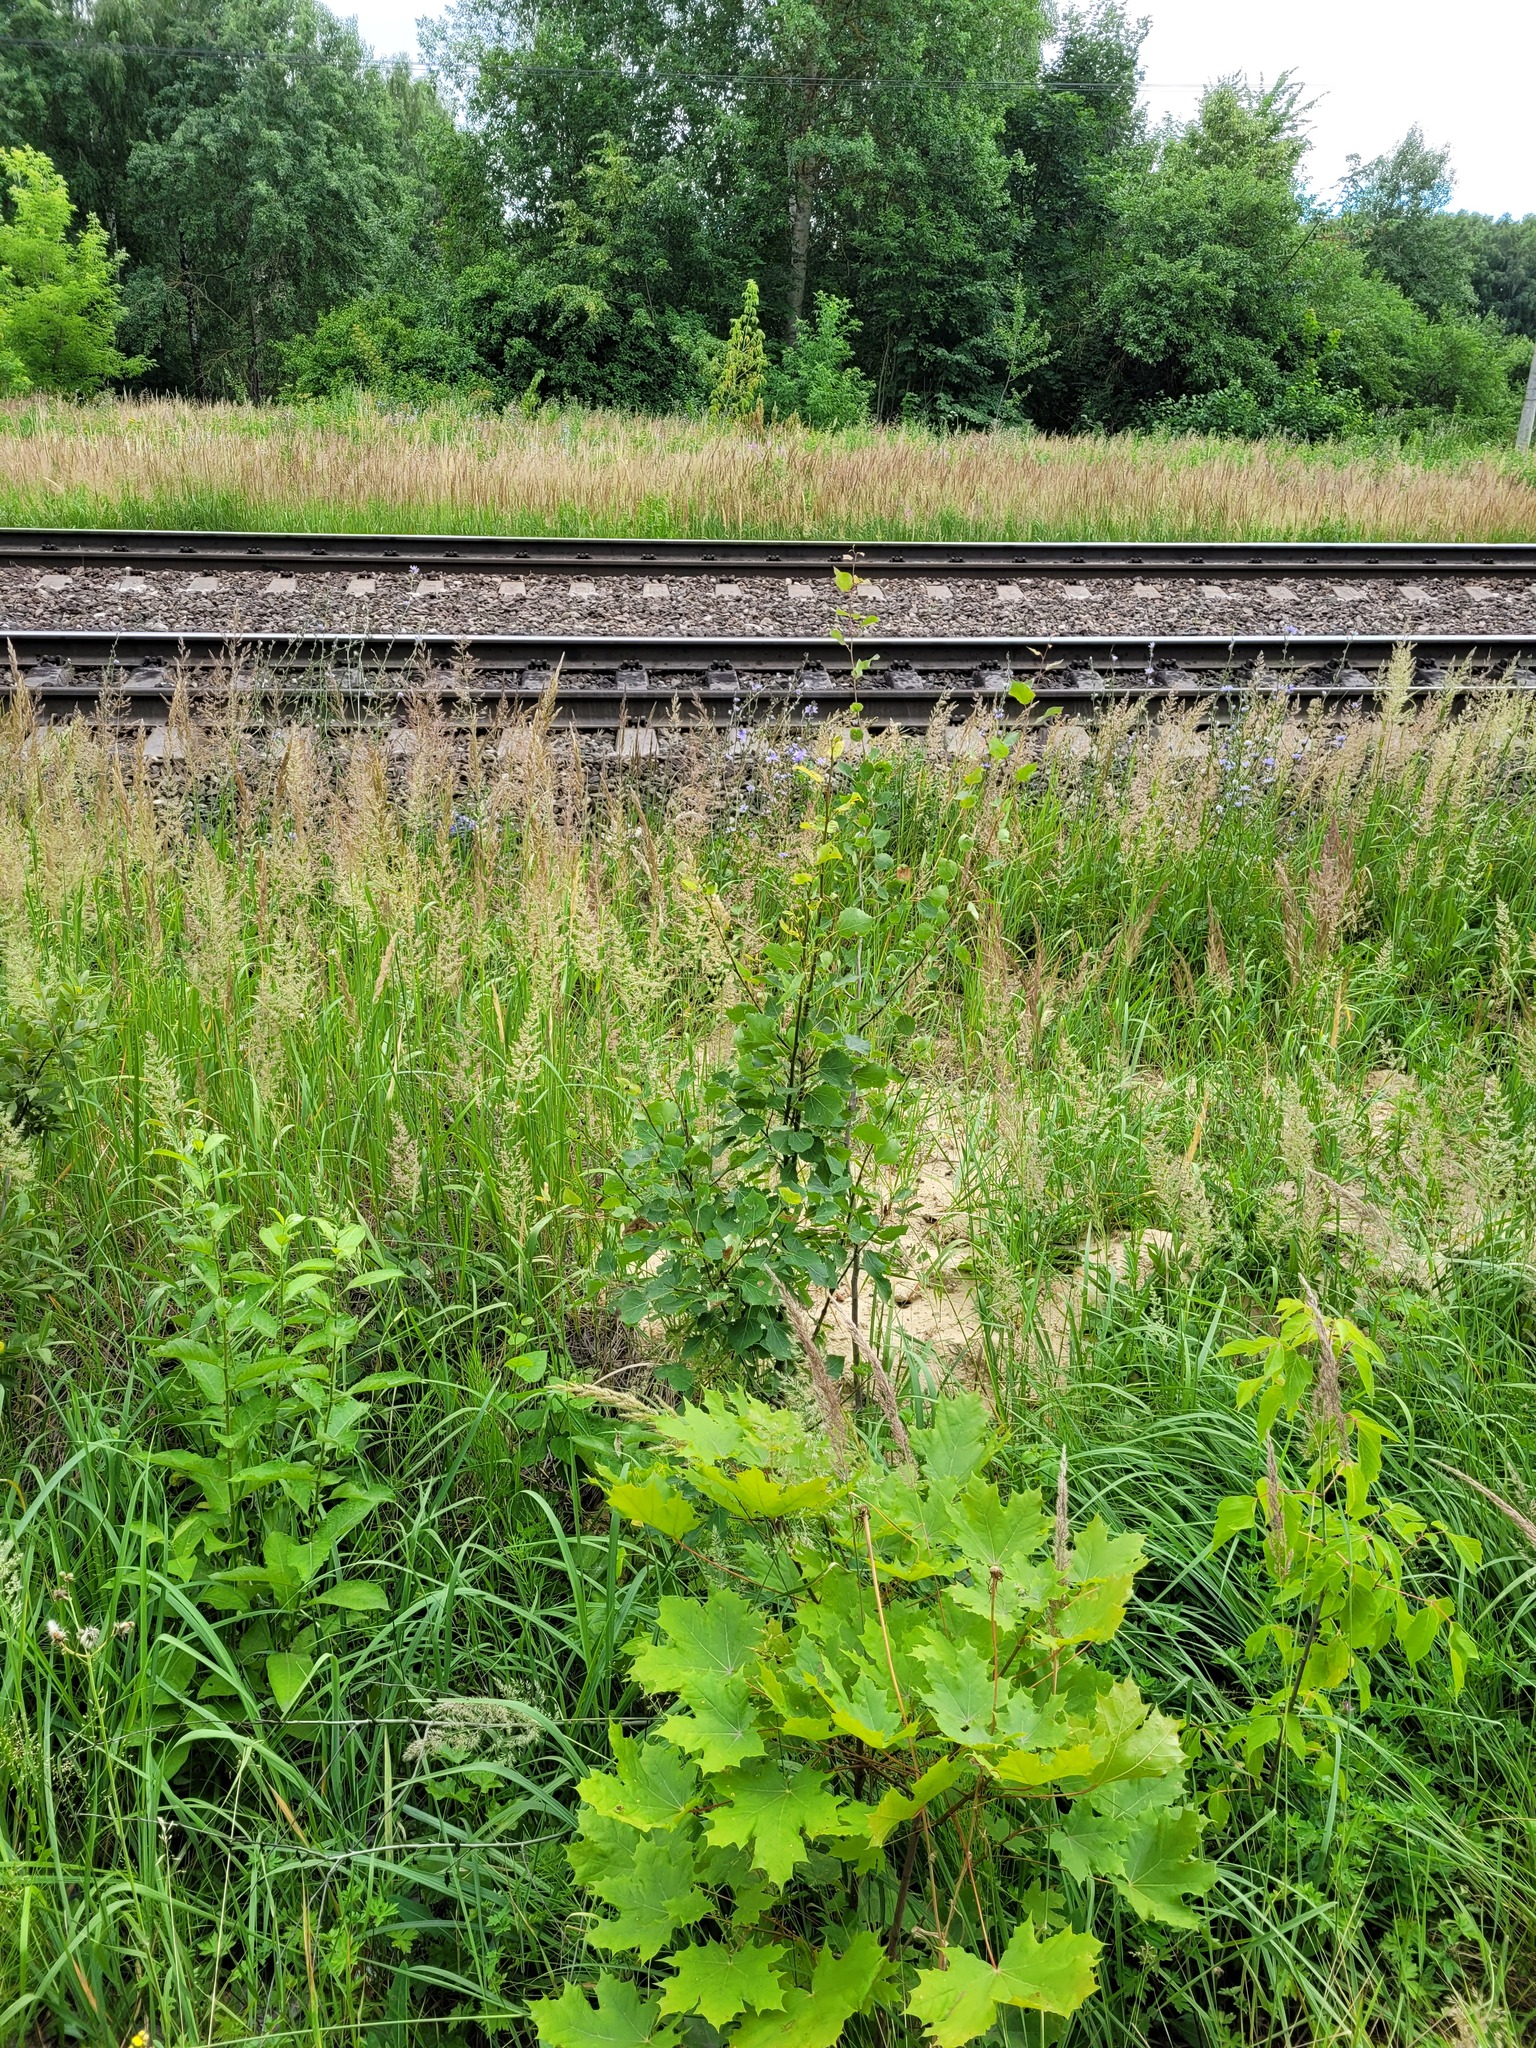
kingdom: Plantae
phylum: Tracheophyta
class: Magnoliopsida
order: Malpighiales
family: Salicaceae
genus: Populus
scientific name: Populus tremula
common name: European aspen
